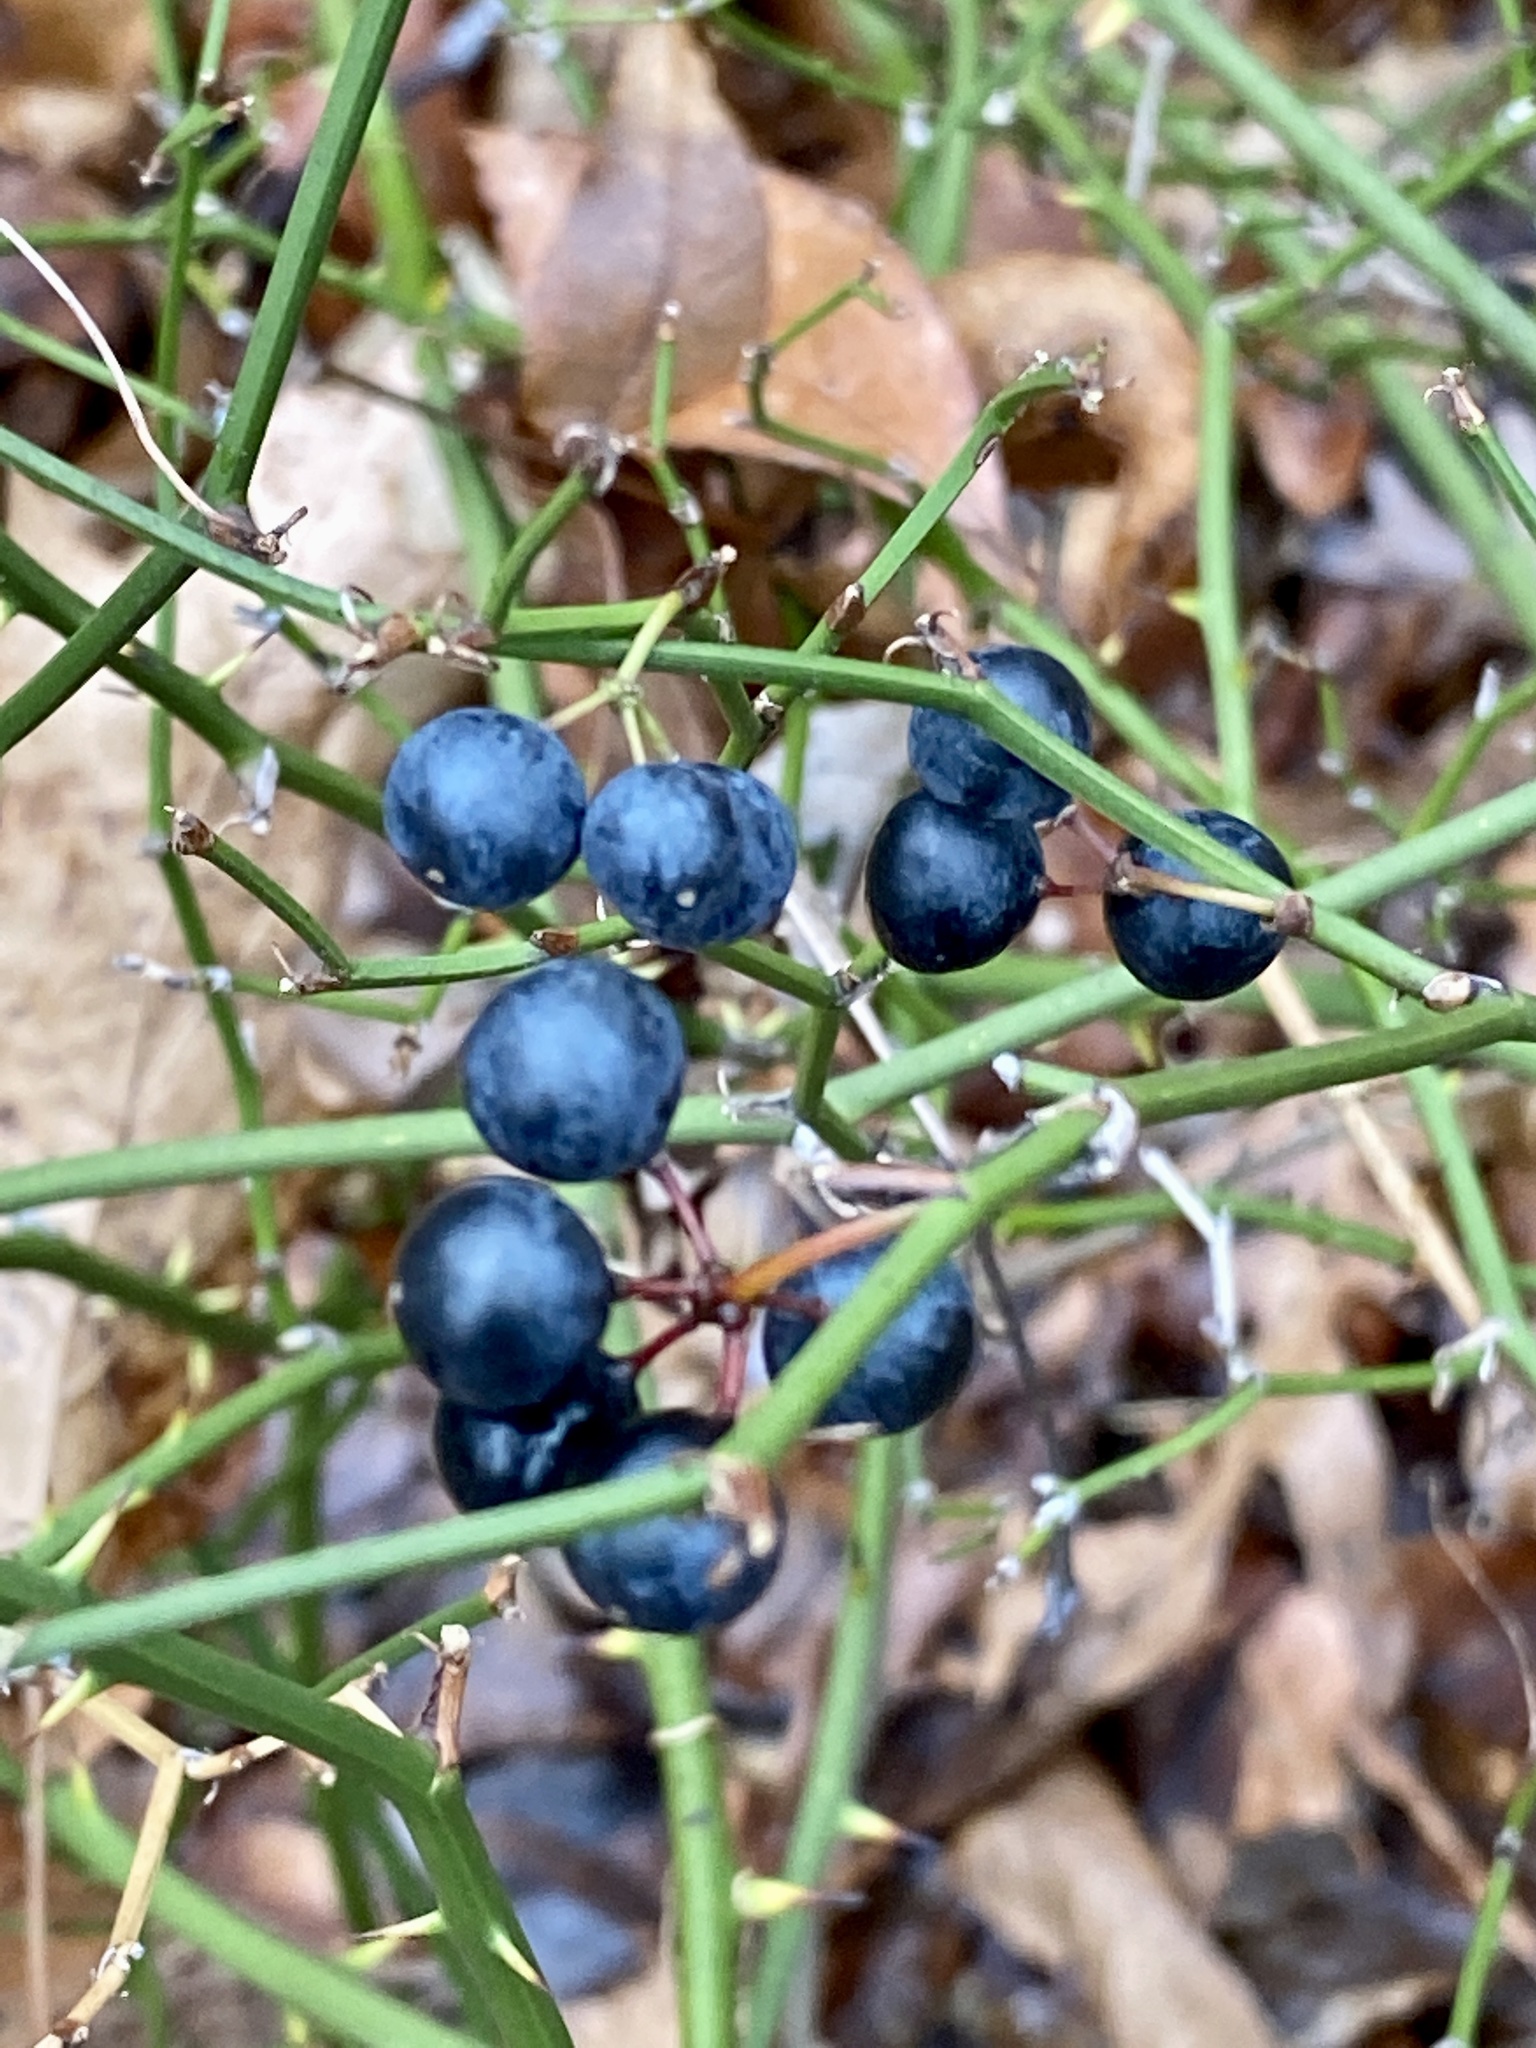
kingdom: Plantae
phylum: Tracheophyta
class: Liliopsida
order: Liliales
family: Smilacaceae
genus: Smilax
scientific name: Smilax rotundifolia
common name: Bullbriar
